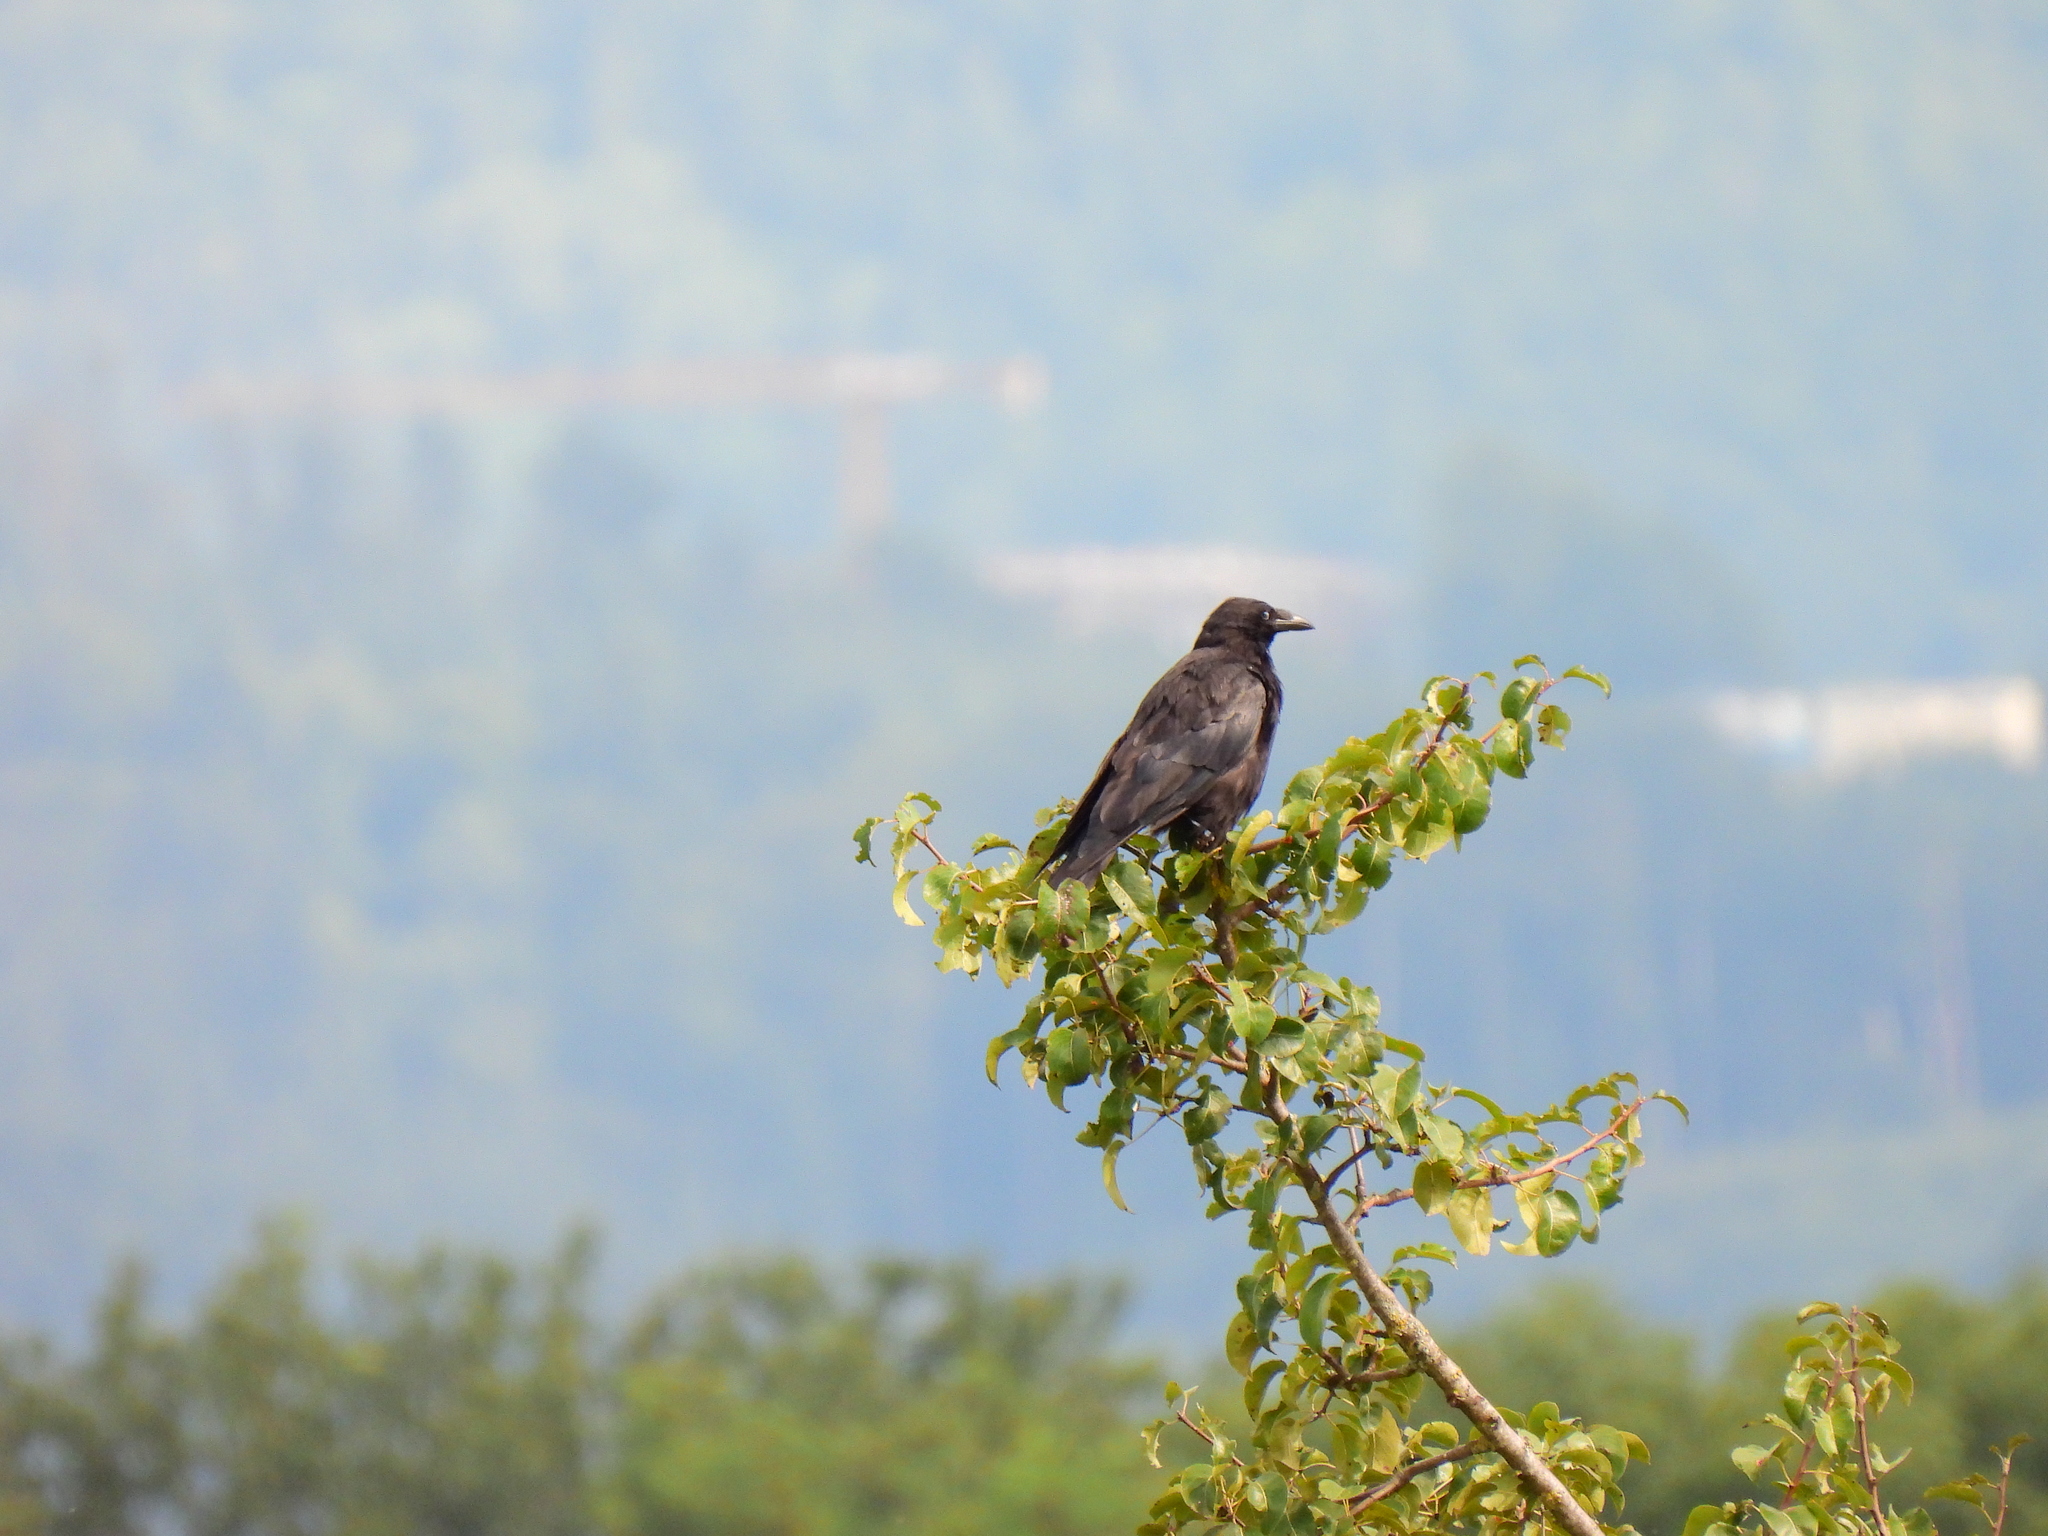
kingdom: Animalia
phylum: Chordata
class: Aves
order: Passeriformes
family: Corvidae
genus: Corvus
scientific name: Corvus corone
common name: Carrion crow
